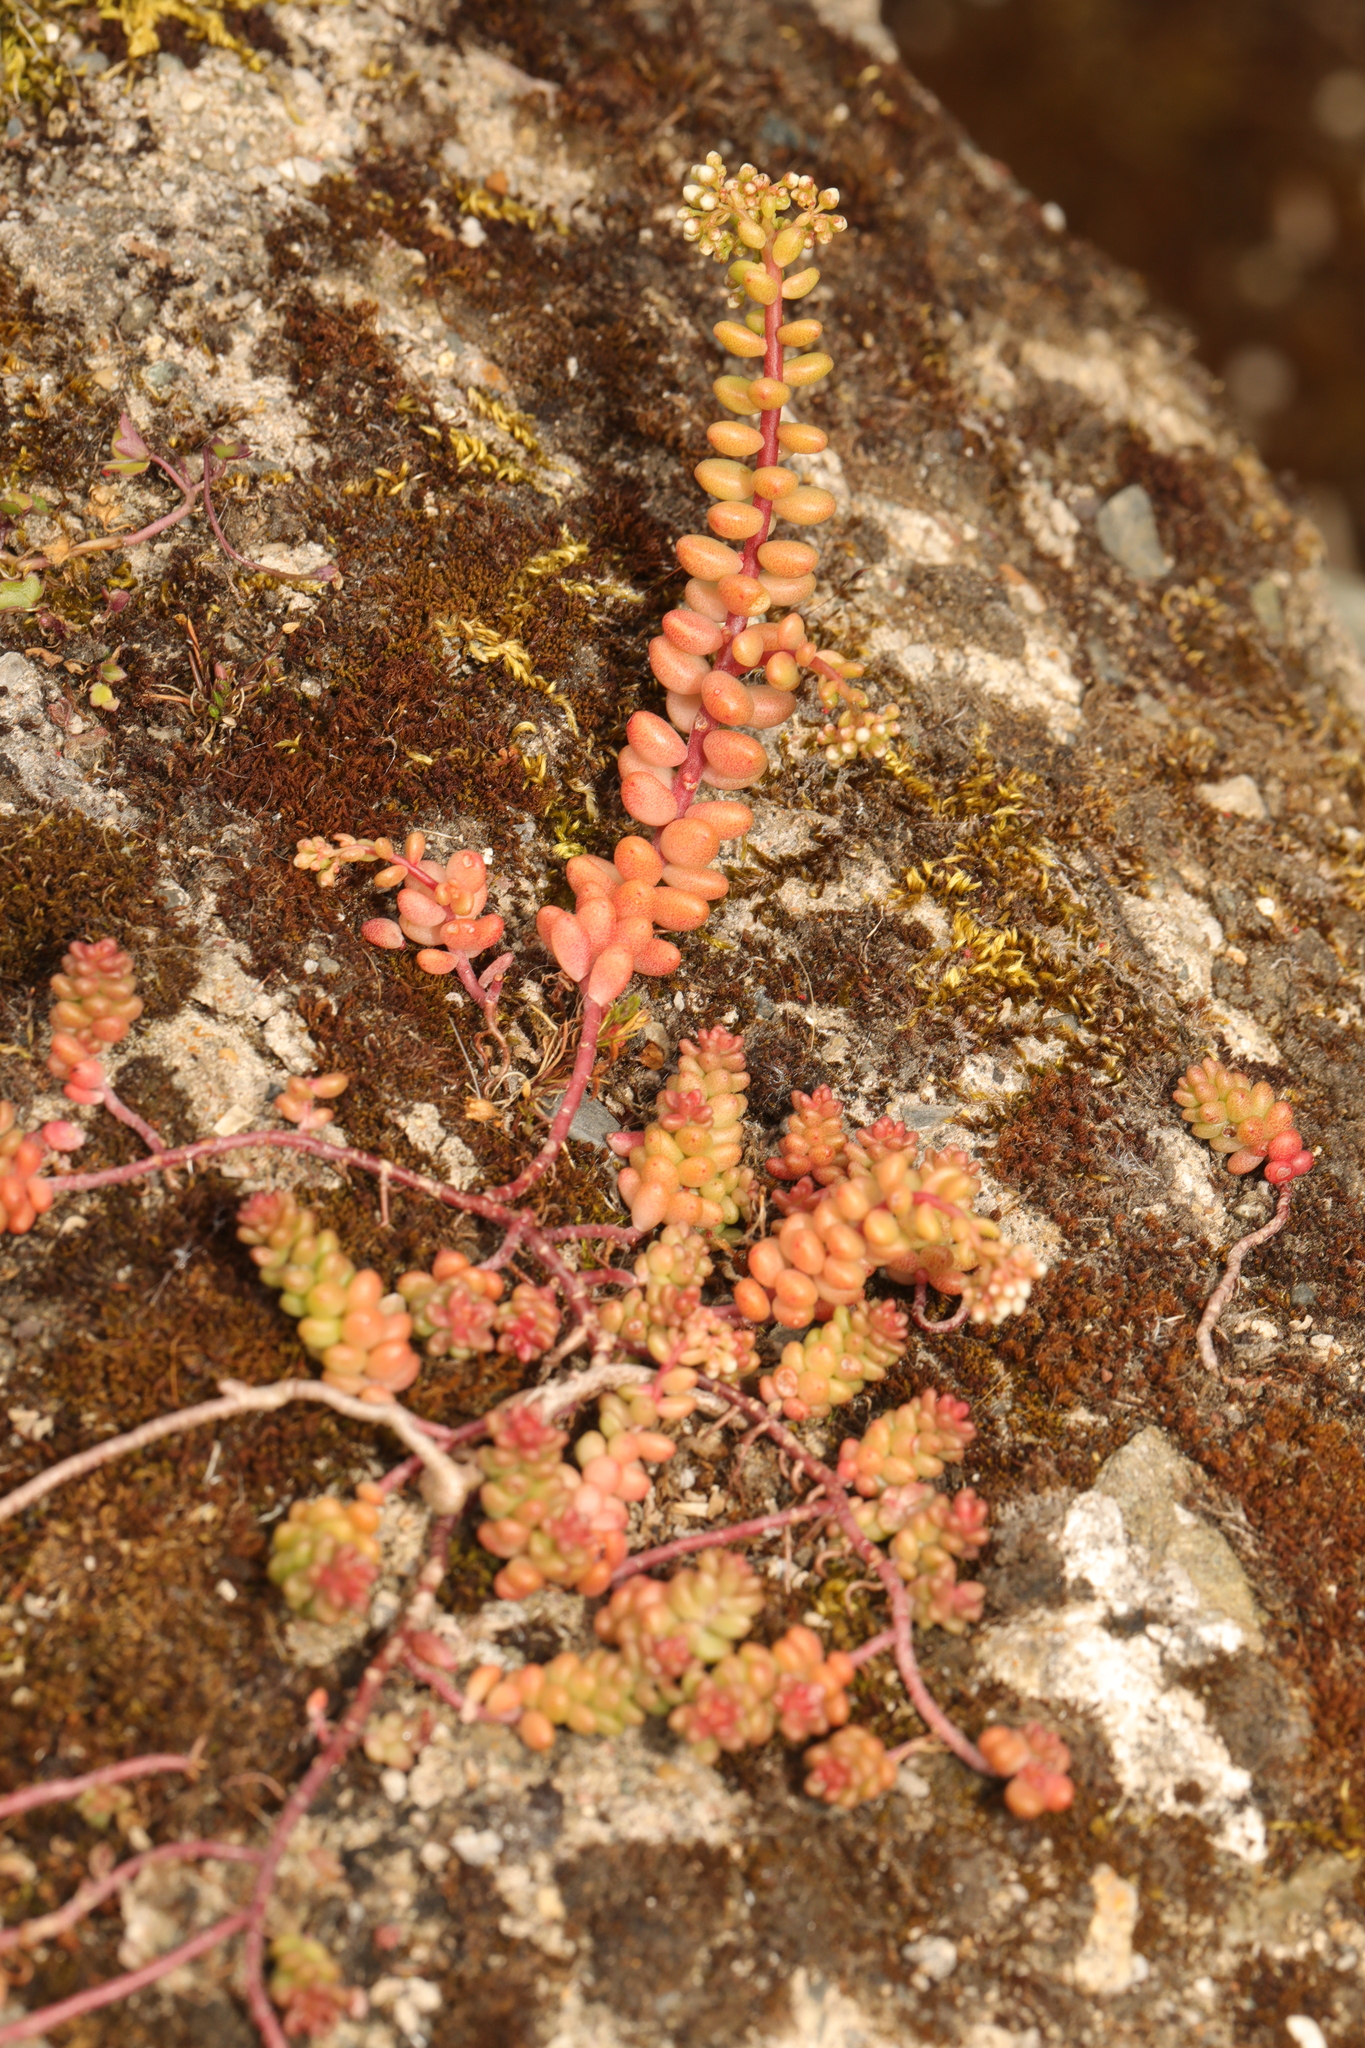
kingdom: Plantae
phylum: Tracheophyta
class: Magnoliopsida
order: Saxifragales
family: Crassulaceae
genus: Sedum
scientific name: Sedum album
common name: White stonecrop
